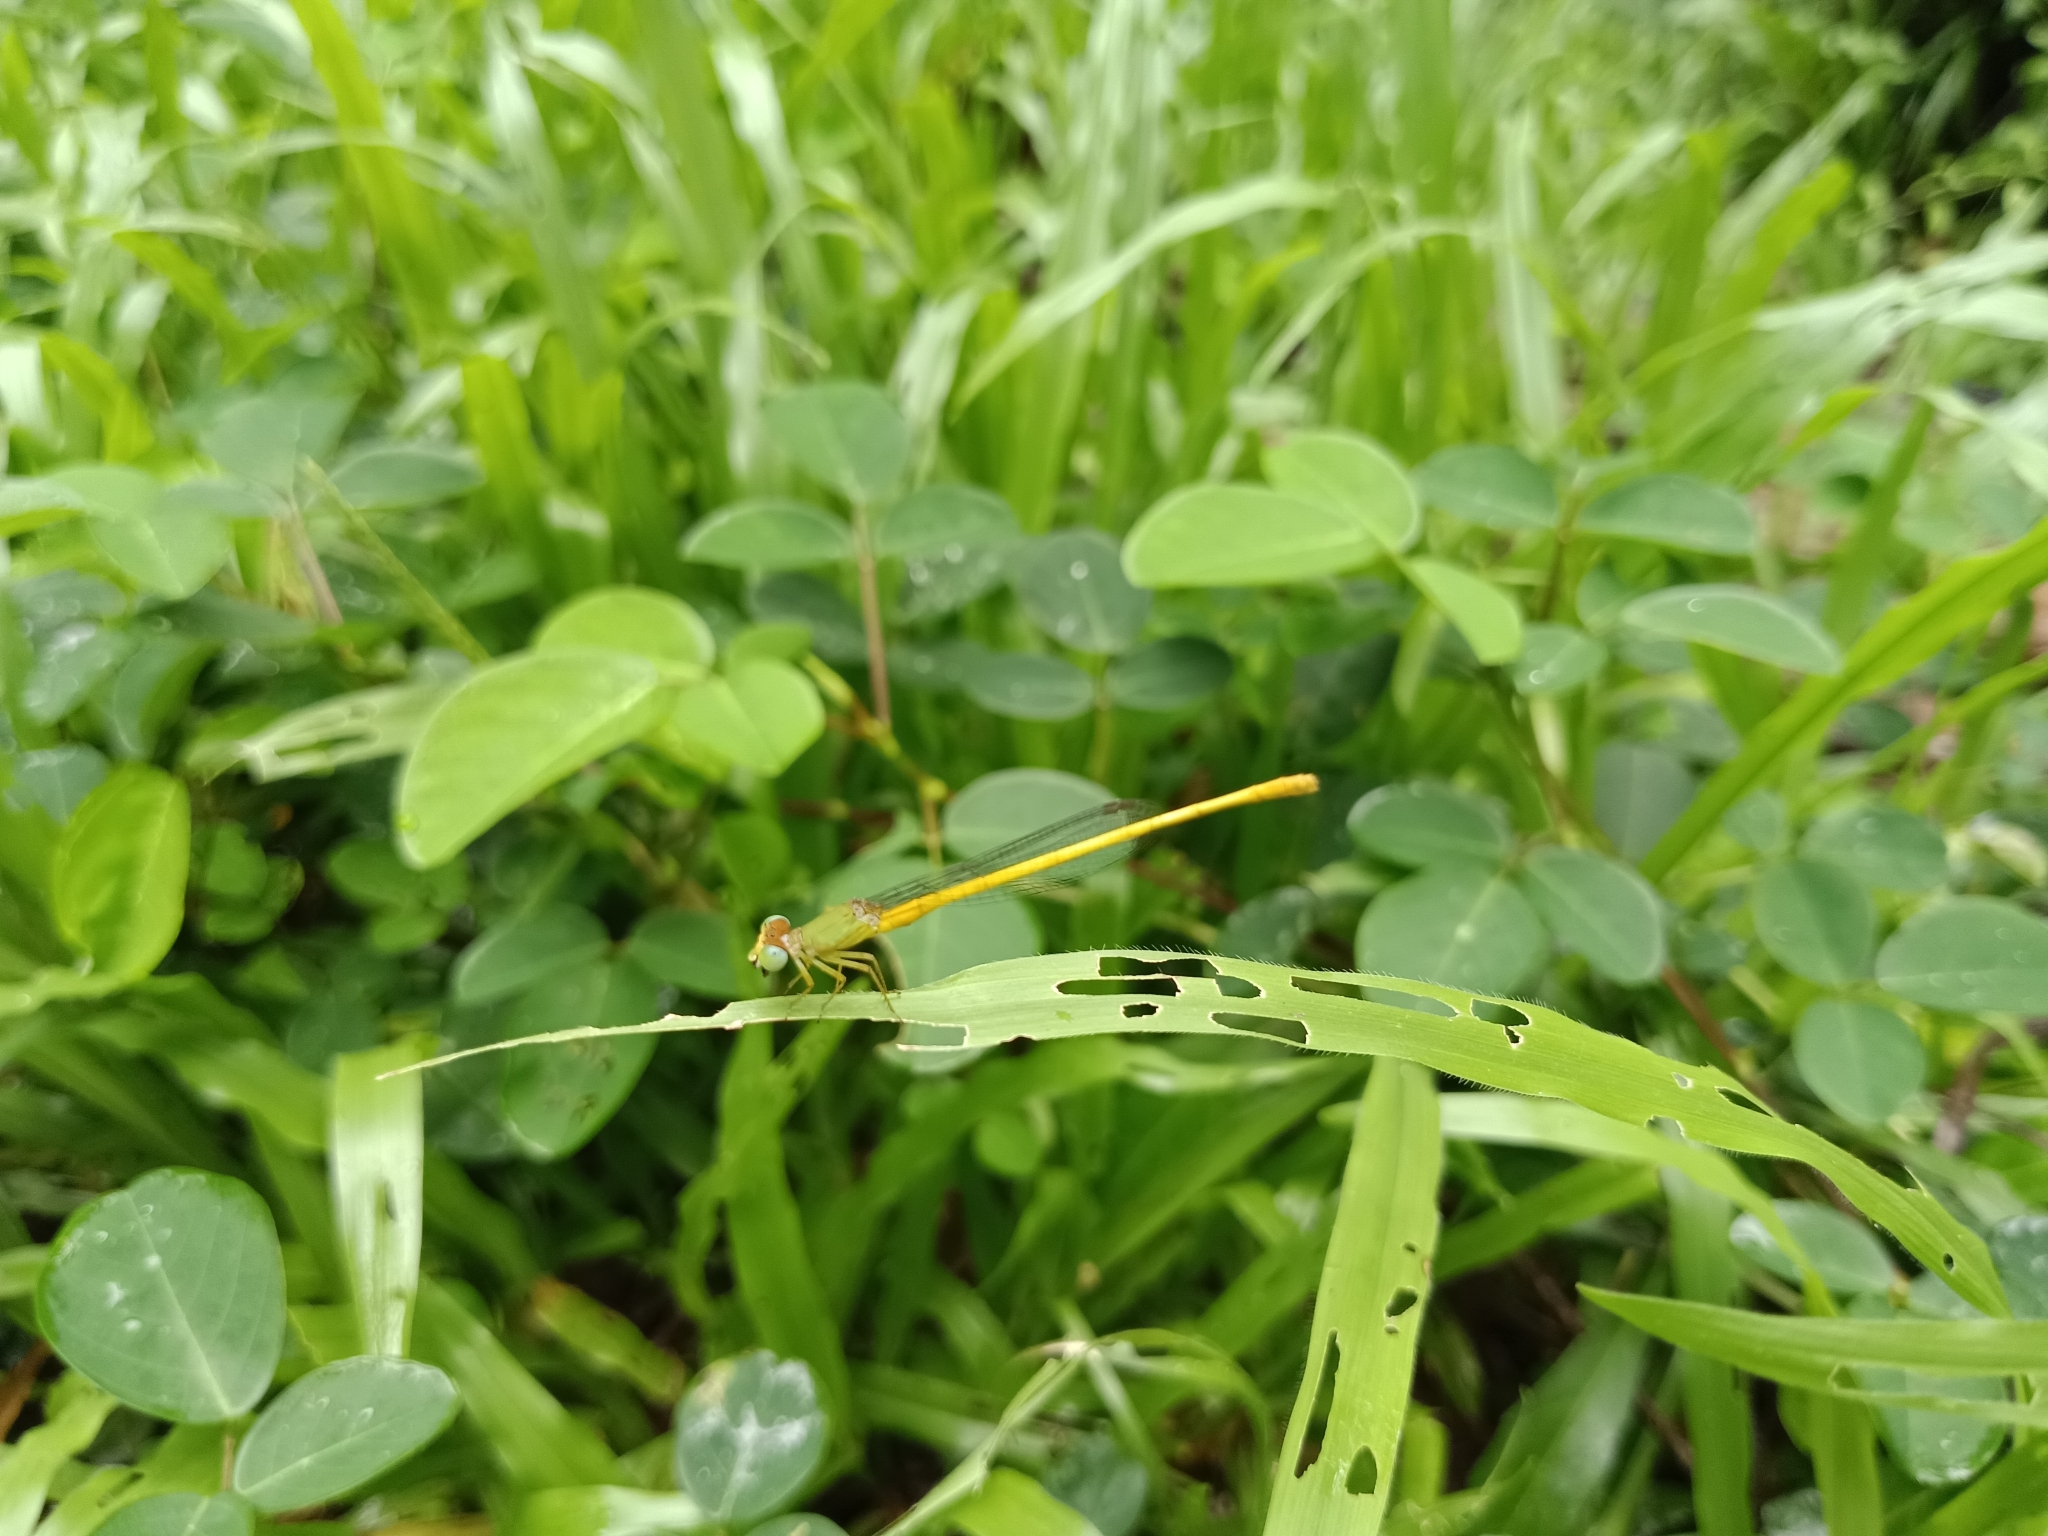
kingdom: Animalia
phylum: Arthropoda
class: Insecta
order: Odonata
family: Coenagrionidae
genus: Ceriagrion
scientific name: Ceriagrion coromandelianum
